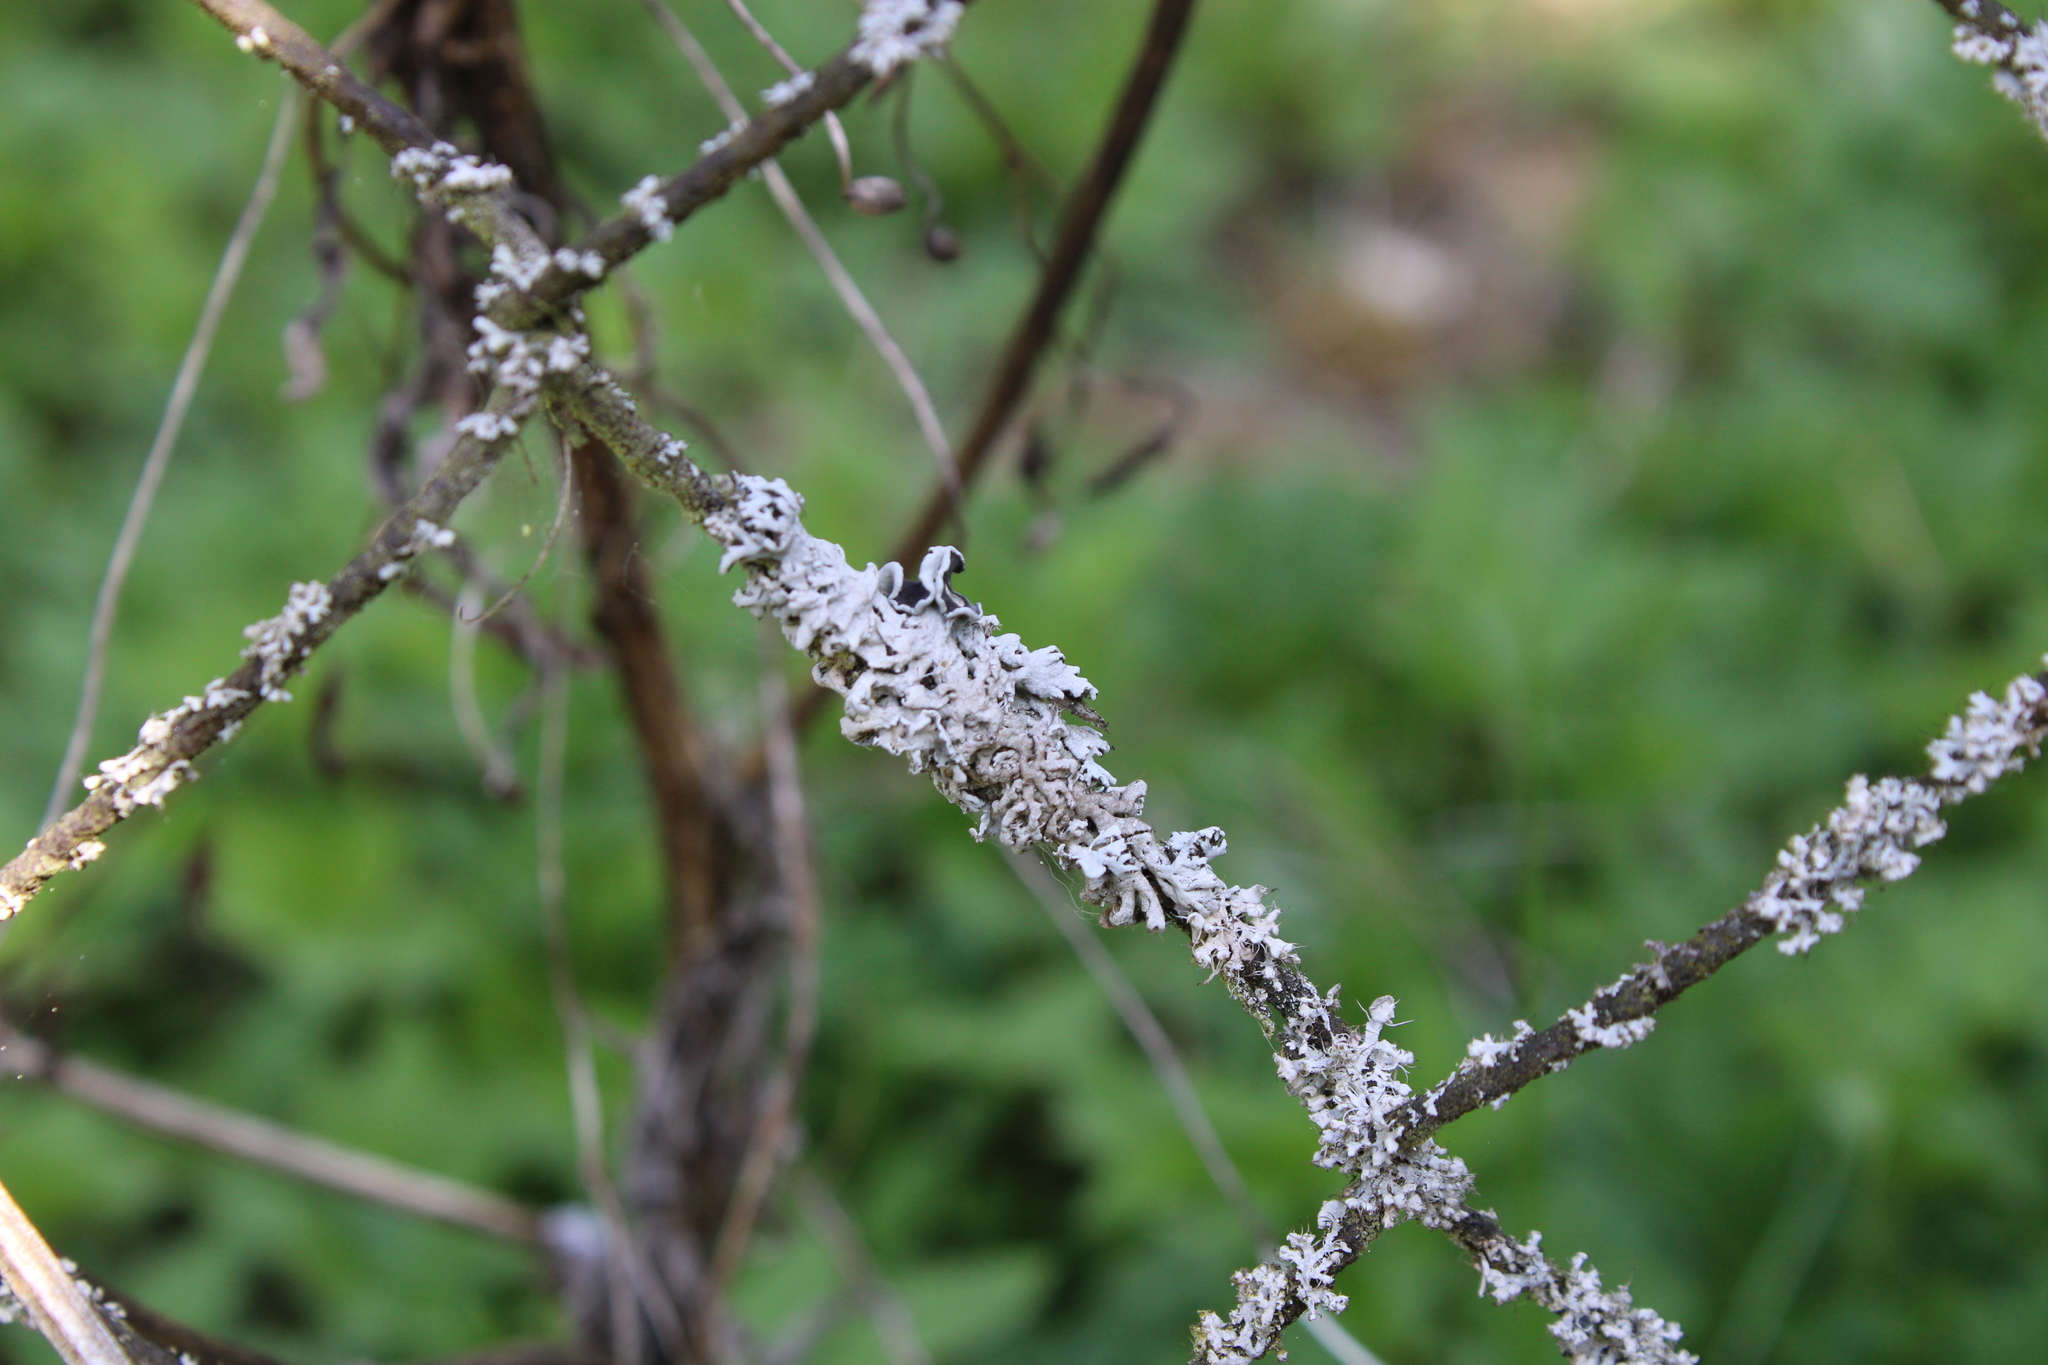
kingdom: Fungi
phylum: Ascomycota
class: Lecanoromycetes
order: Caliciales
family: Physciaceae
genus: Physcia
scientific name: Physcia adscendens
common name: Hooded rosette lichen
